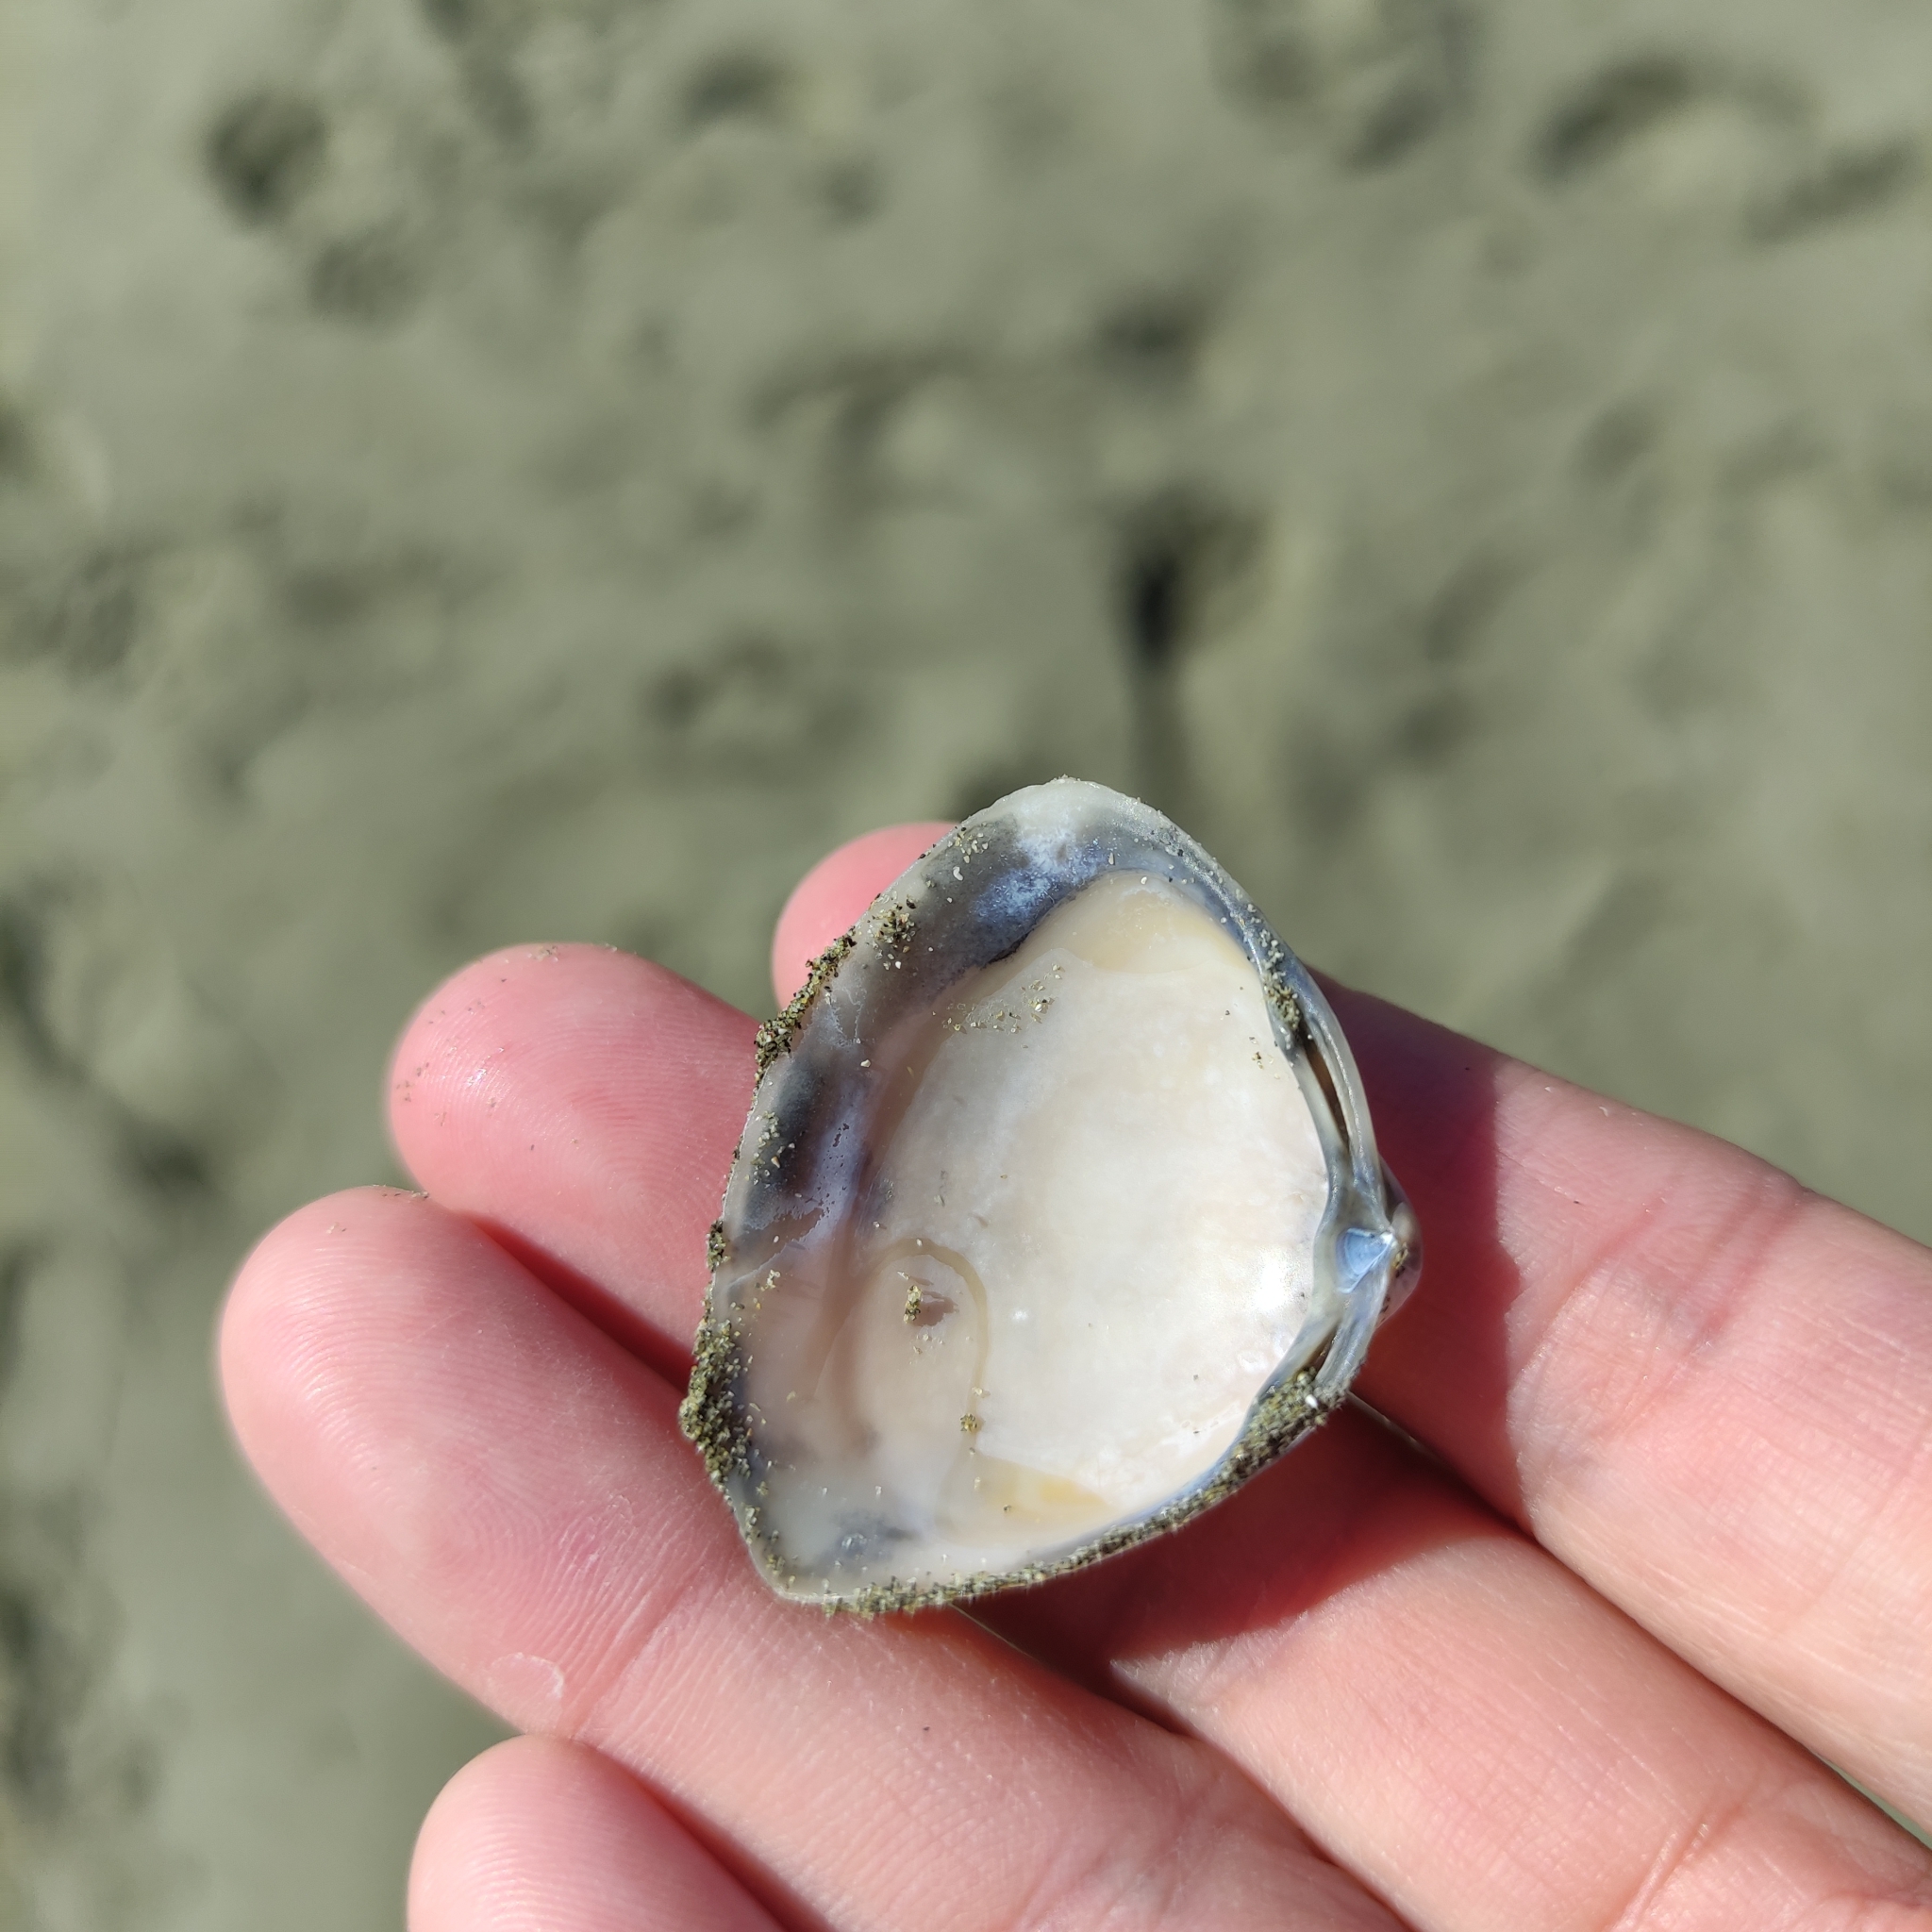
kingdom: Animalia
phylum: Mollusca
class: Bivalvia
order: Venerida
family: Mactridae
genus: Crassula
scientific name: Crassula aequilatera
